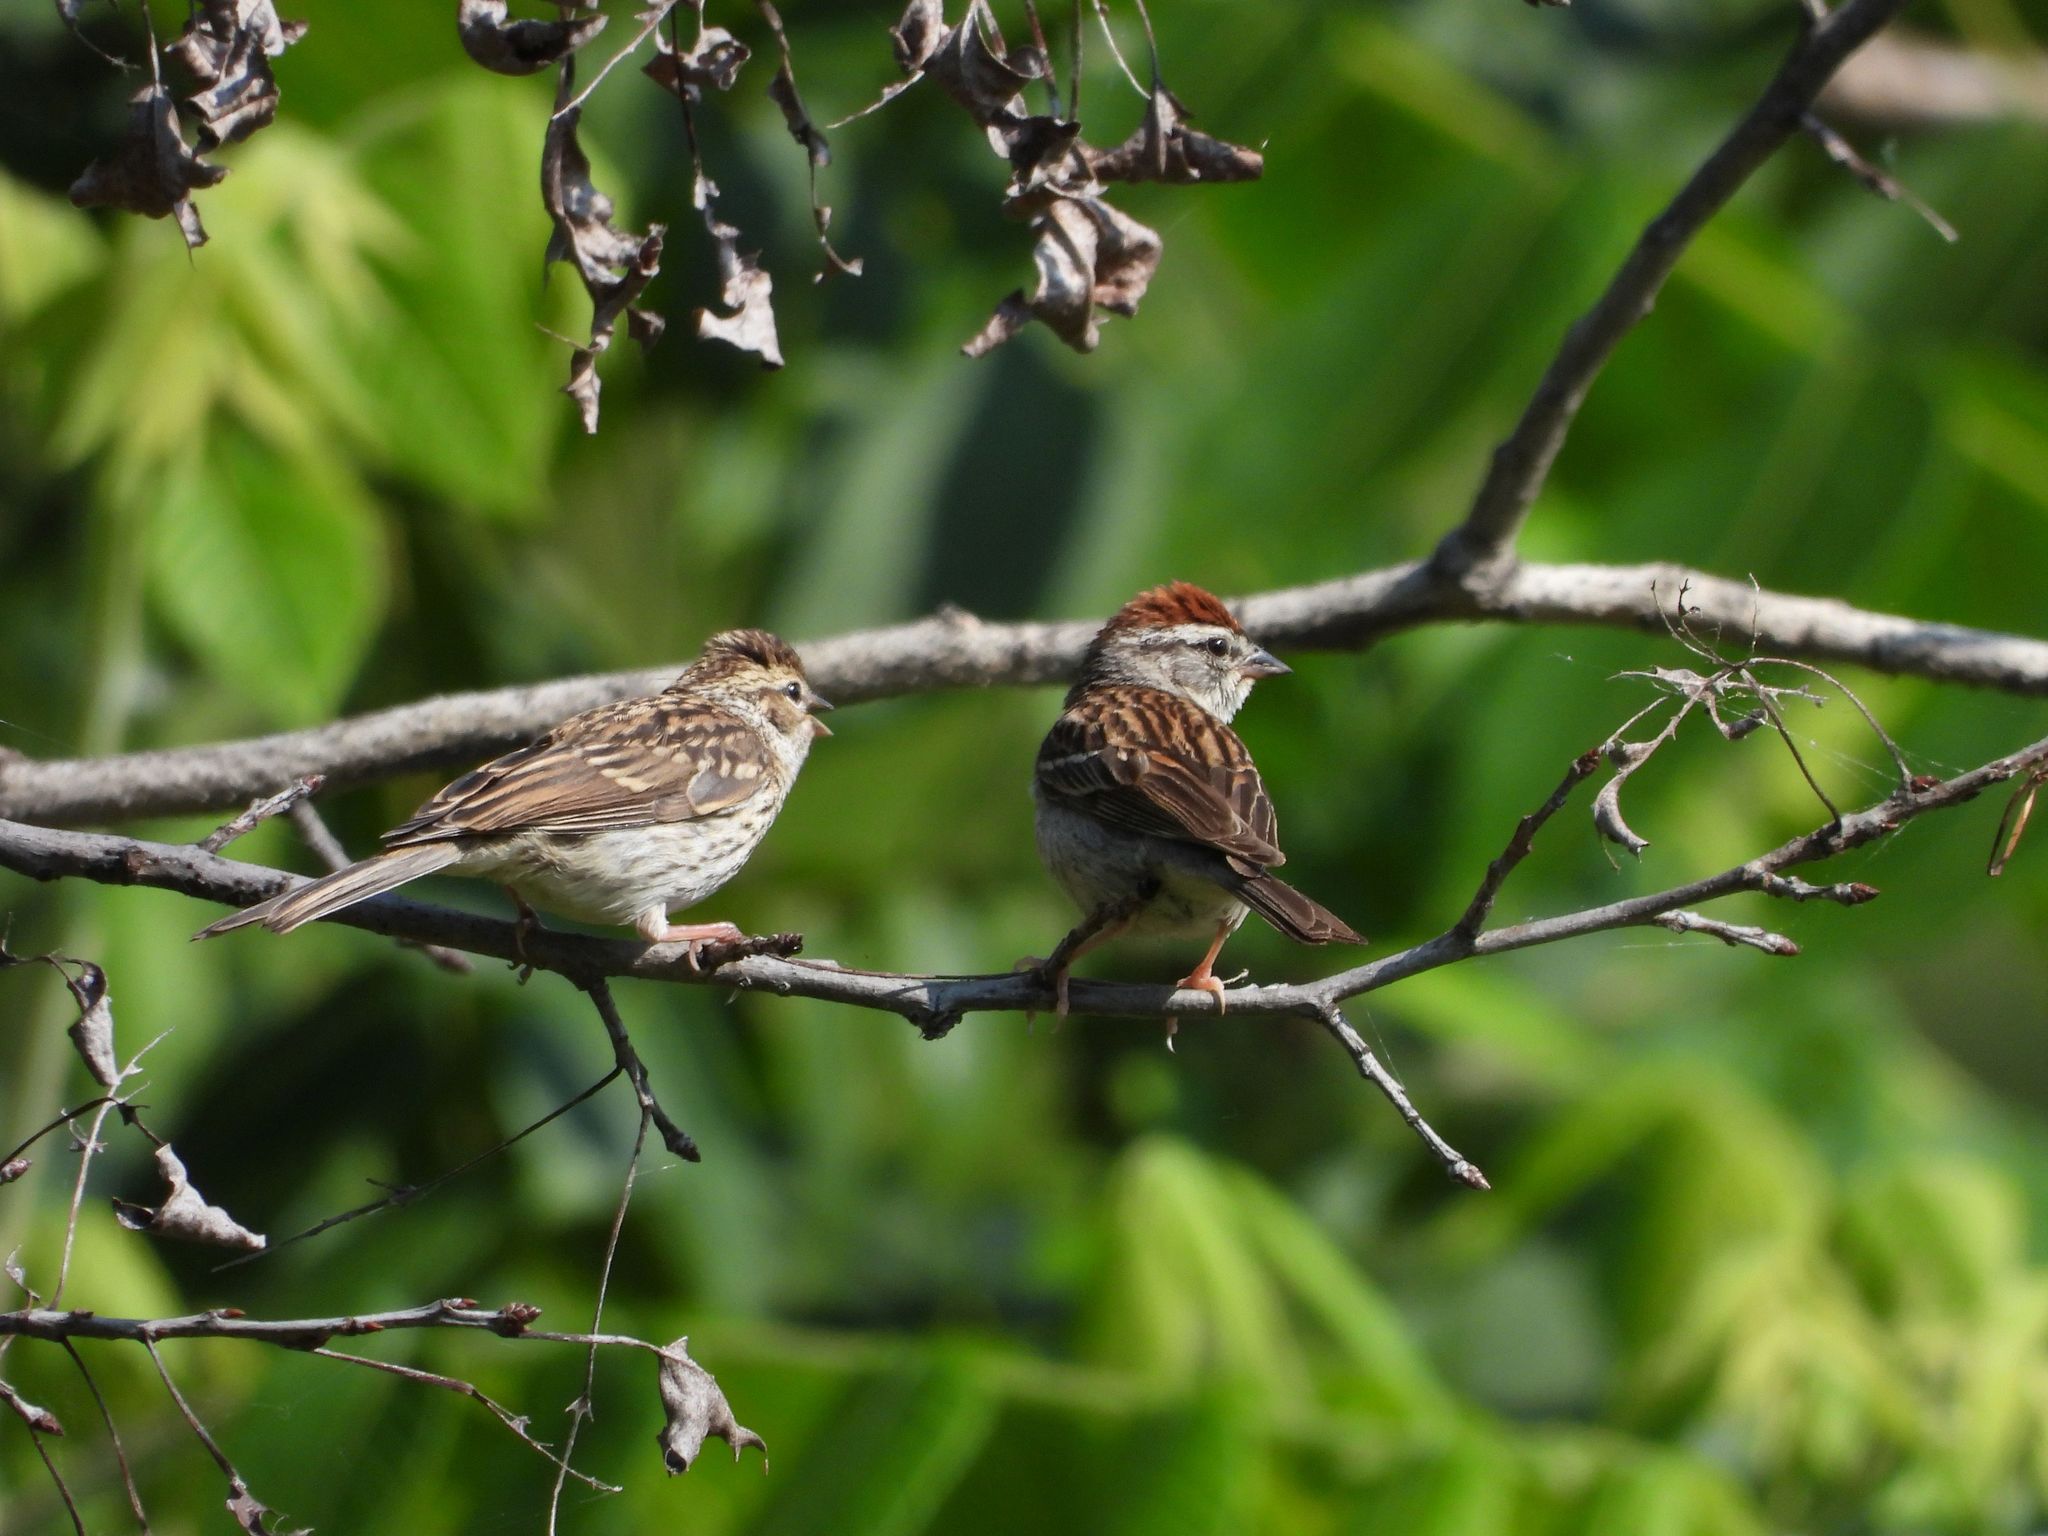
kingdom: Animalia
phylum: Chordata
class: Aves
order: Passeriformes
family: Passerellidae
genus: Spizella
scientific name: Spizella passerina
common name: Chipping sparrow
